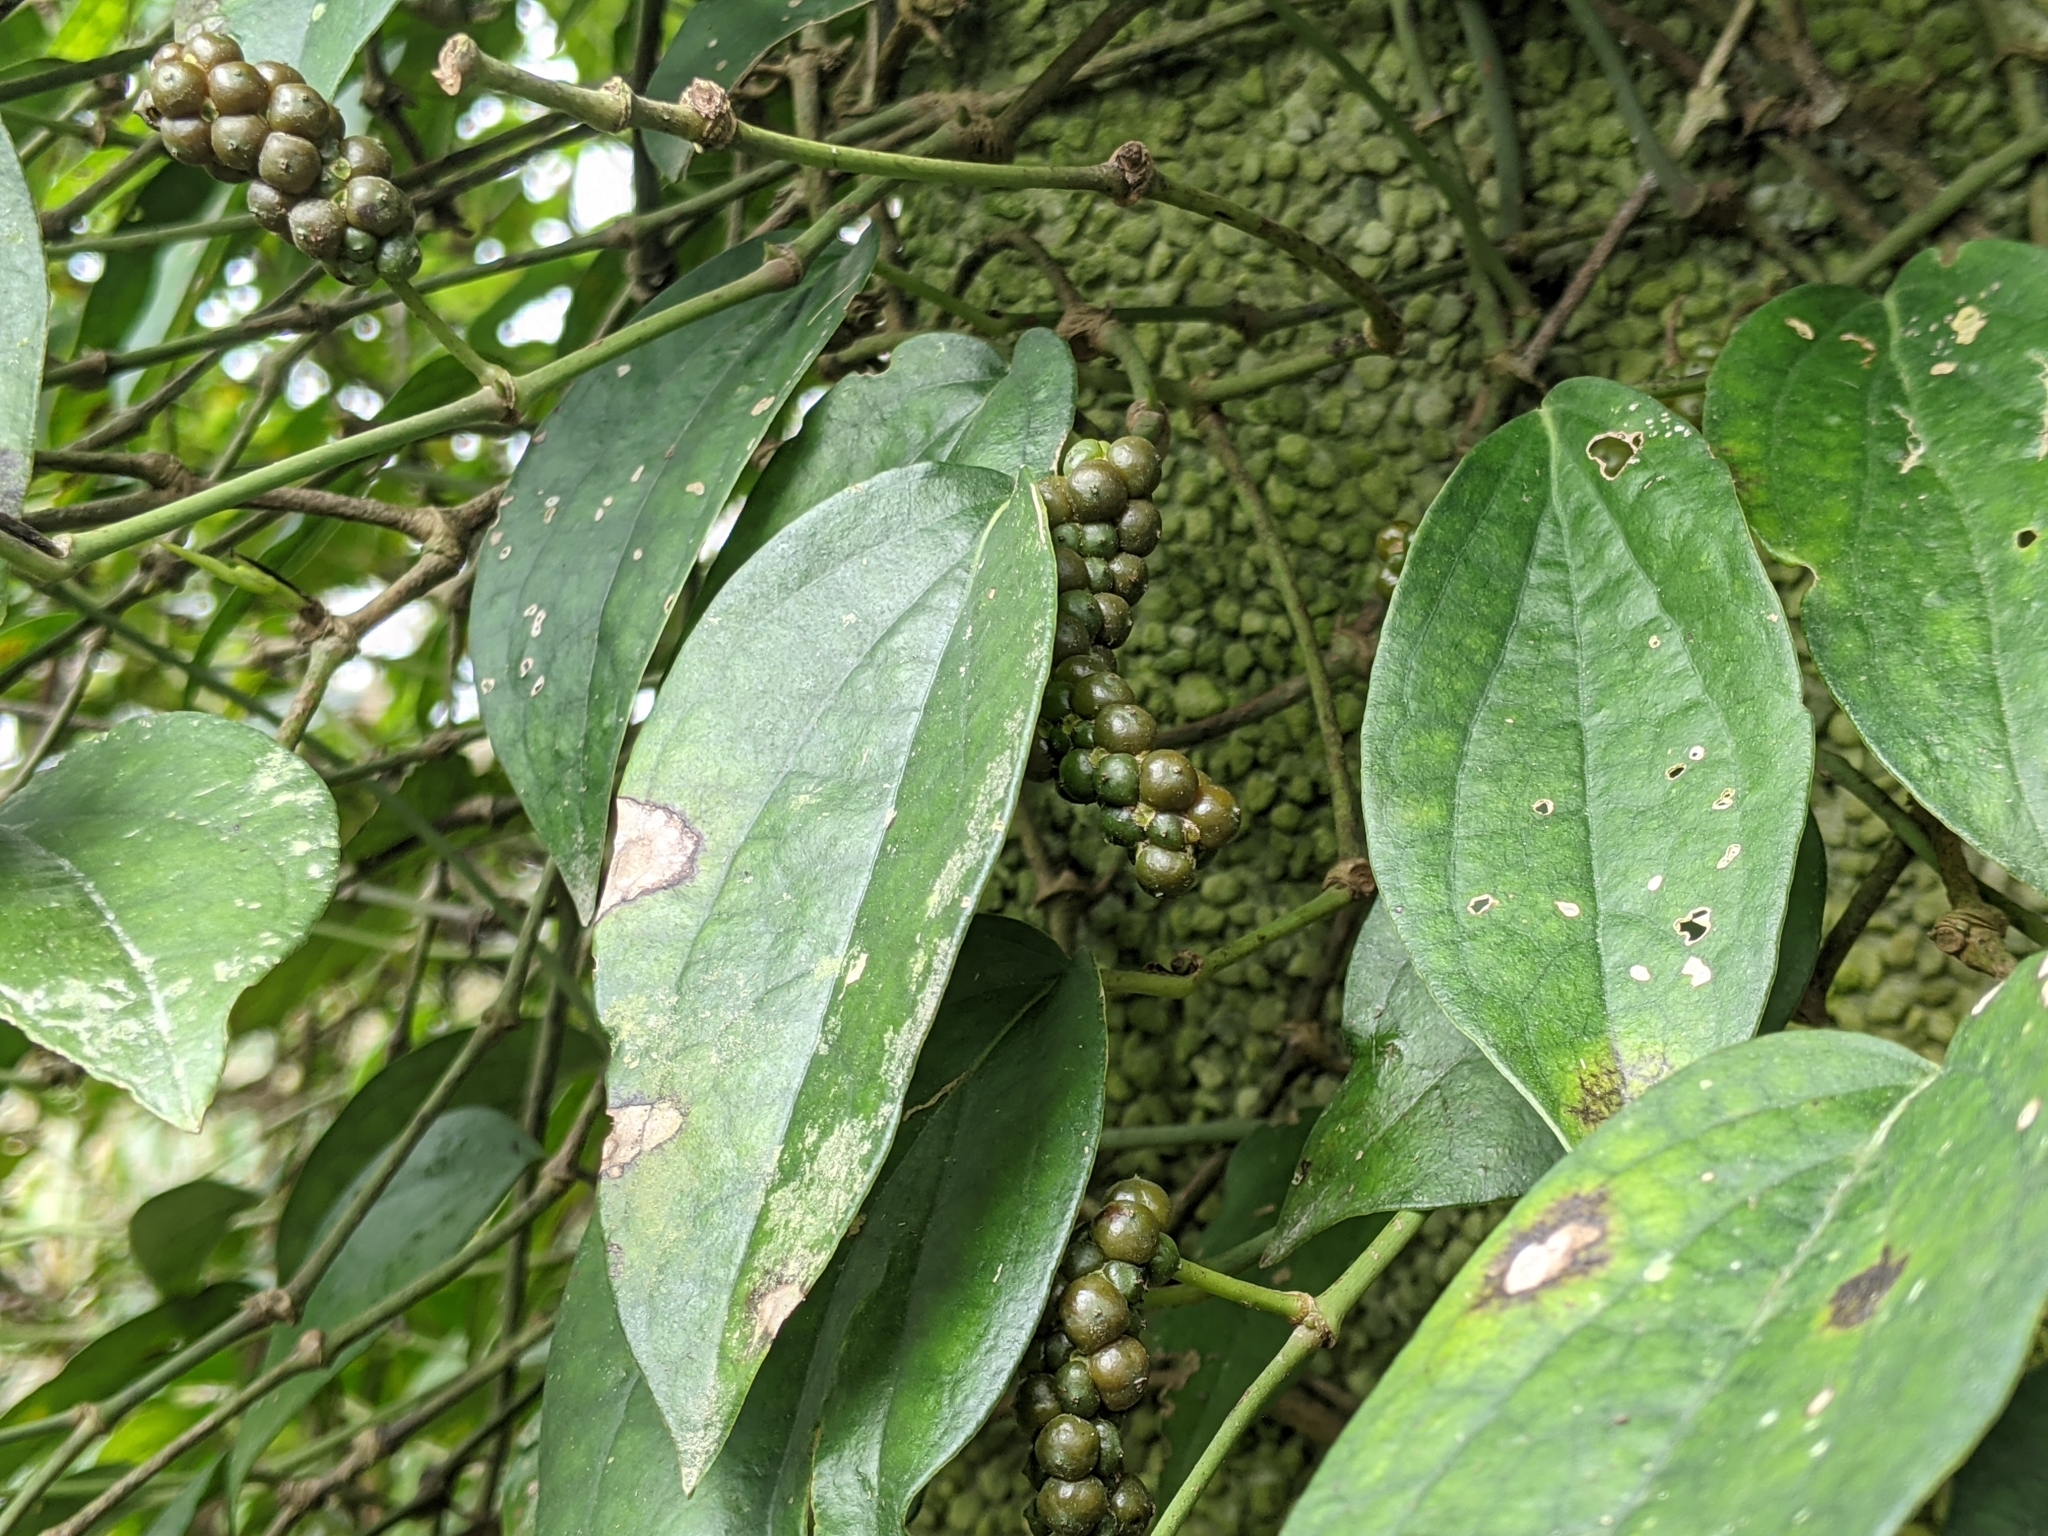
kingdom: Plantae
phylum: Tracheophyta
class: Magnoliopsida
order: Piperales
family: Piperaceae
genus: Piper
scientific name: Piper kadsura
